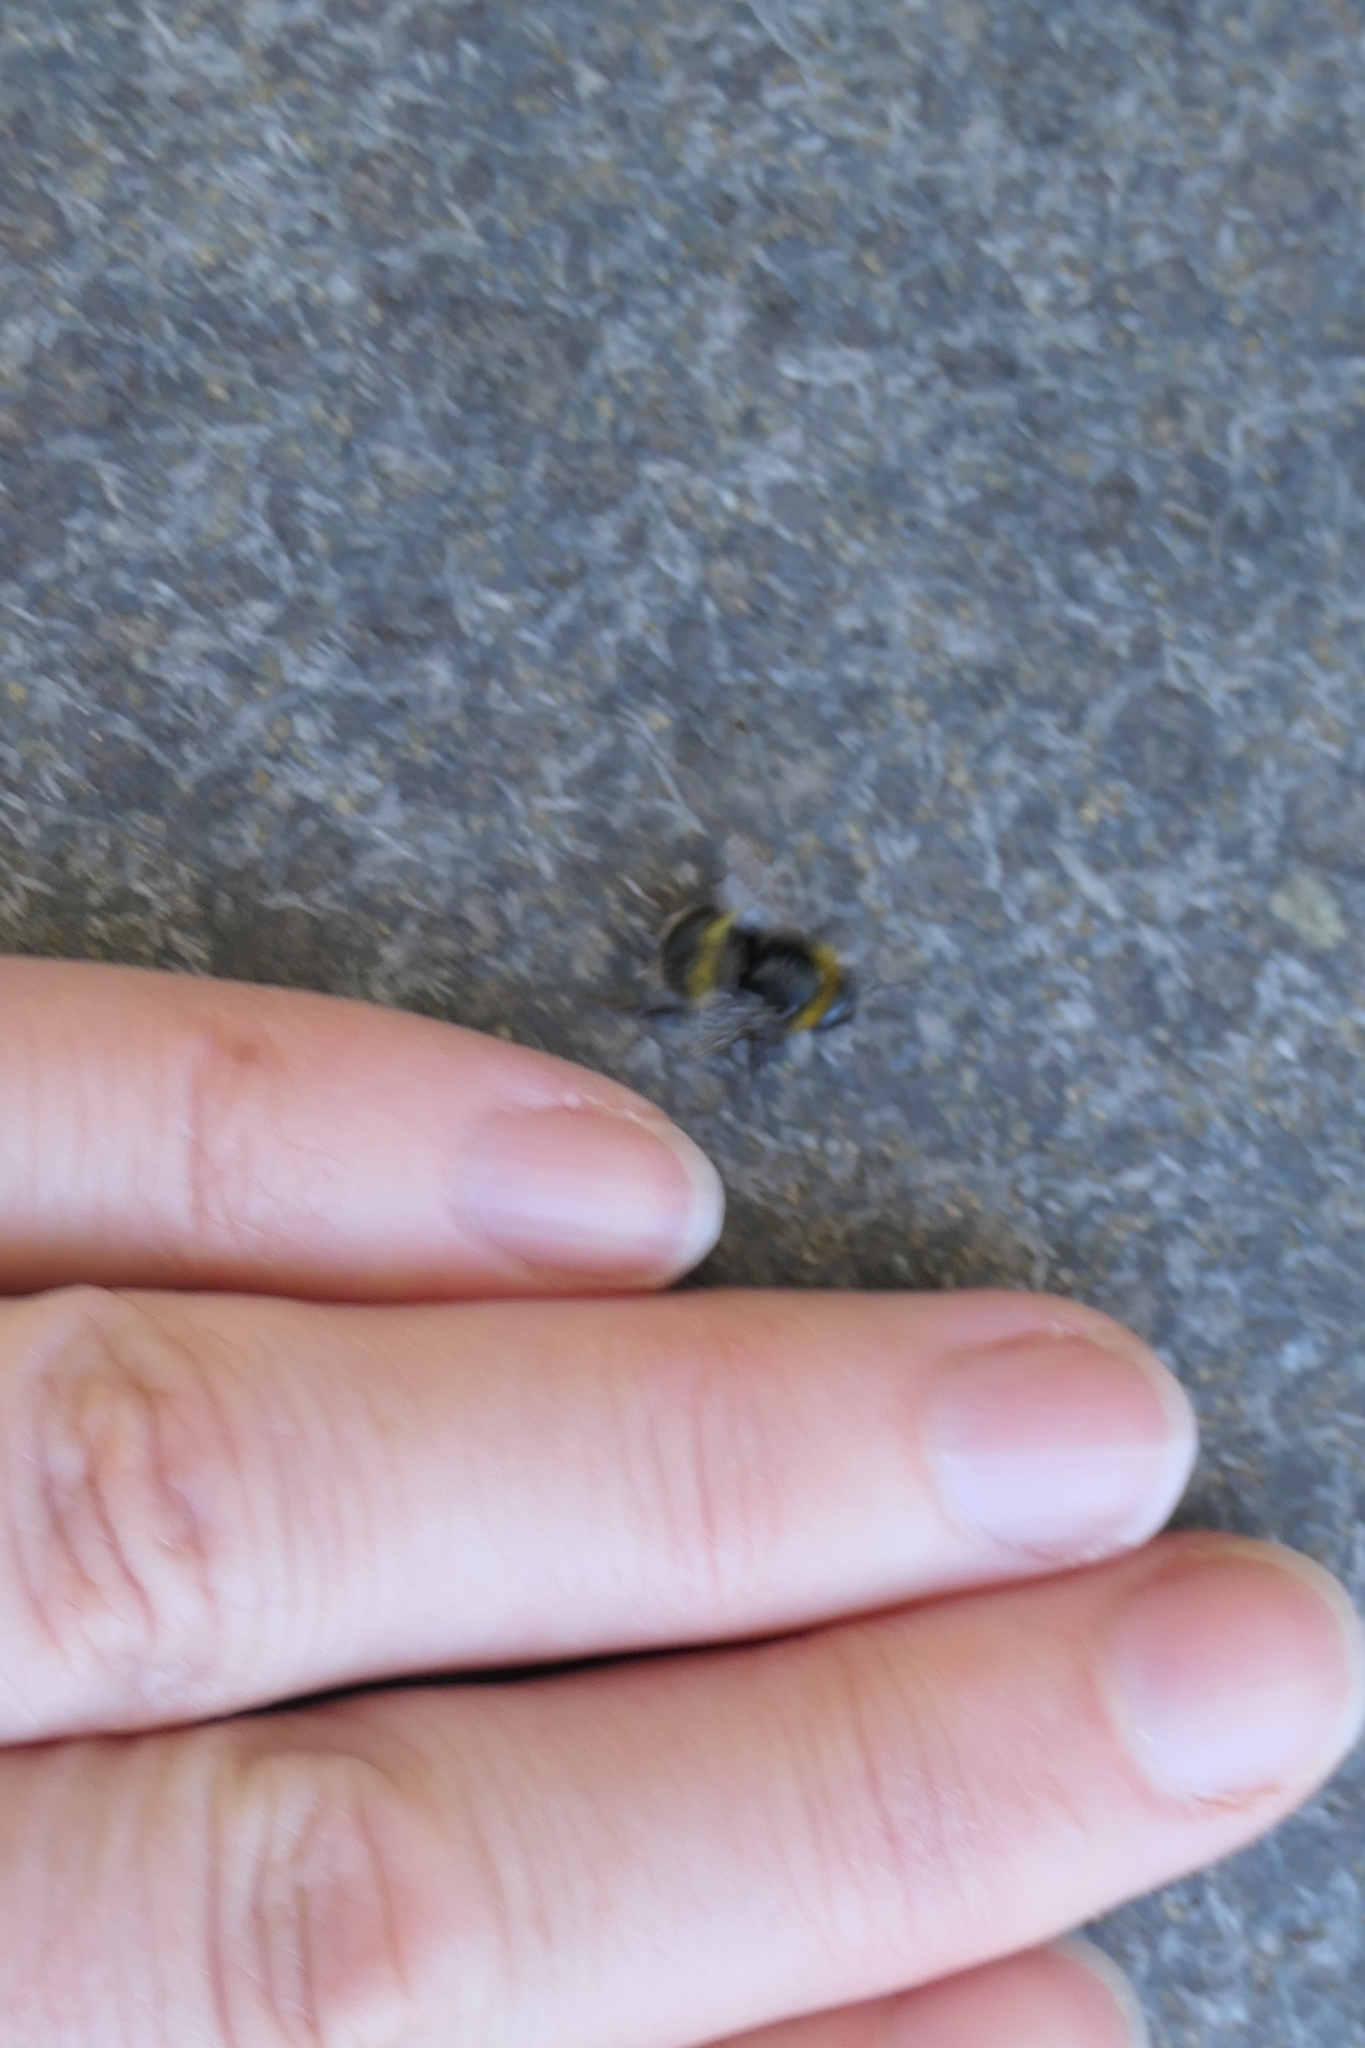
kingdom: Animalia
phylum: Arthropoda
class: Insecta
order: Hymenoptera
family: Apidae
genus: Bombus
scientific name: Bombus terrestris
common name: Buff-tailed bumblebee
